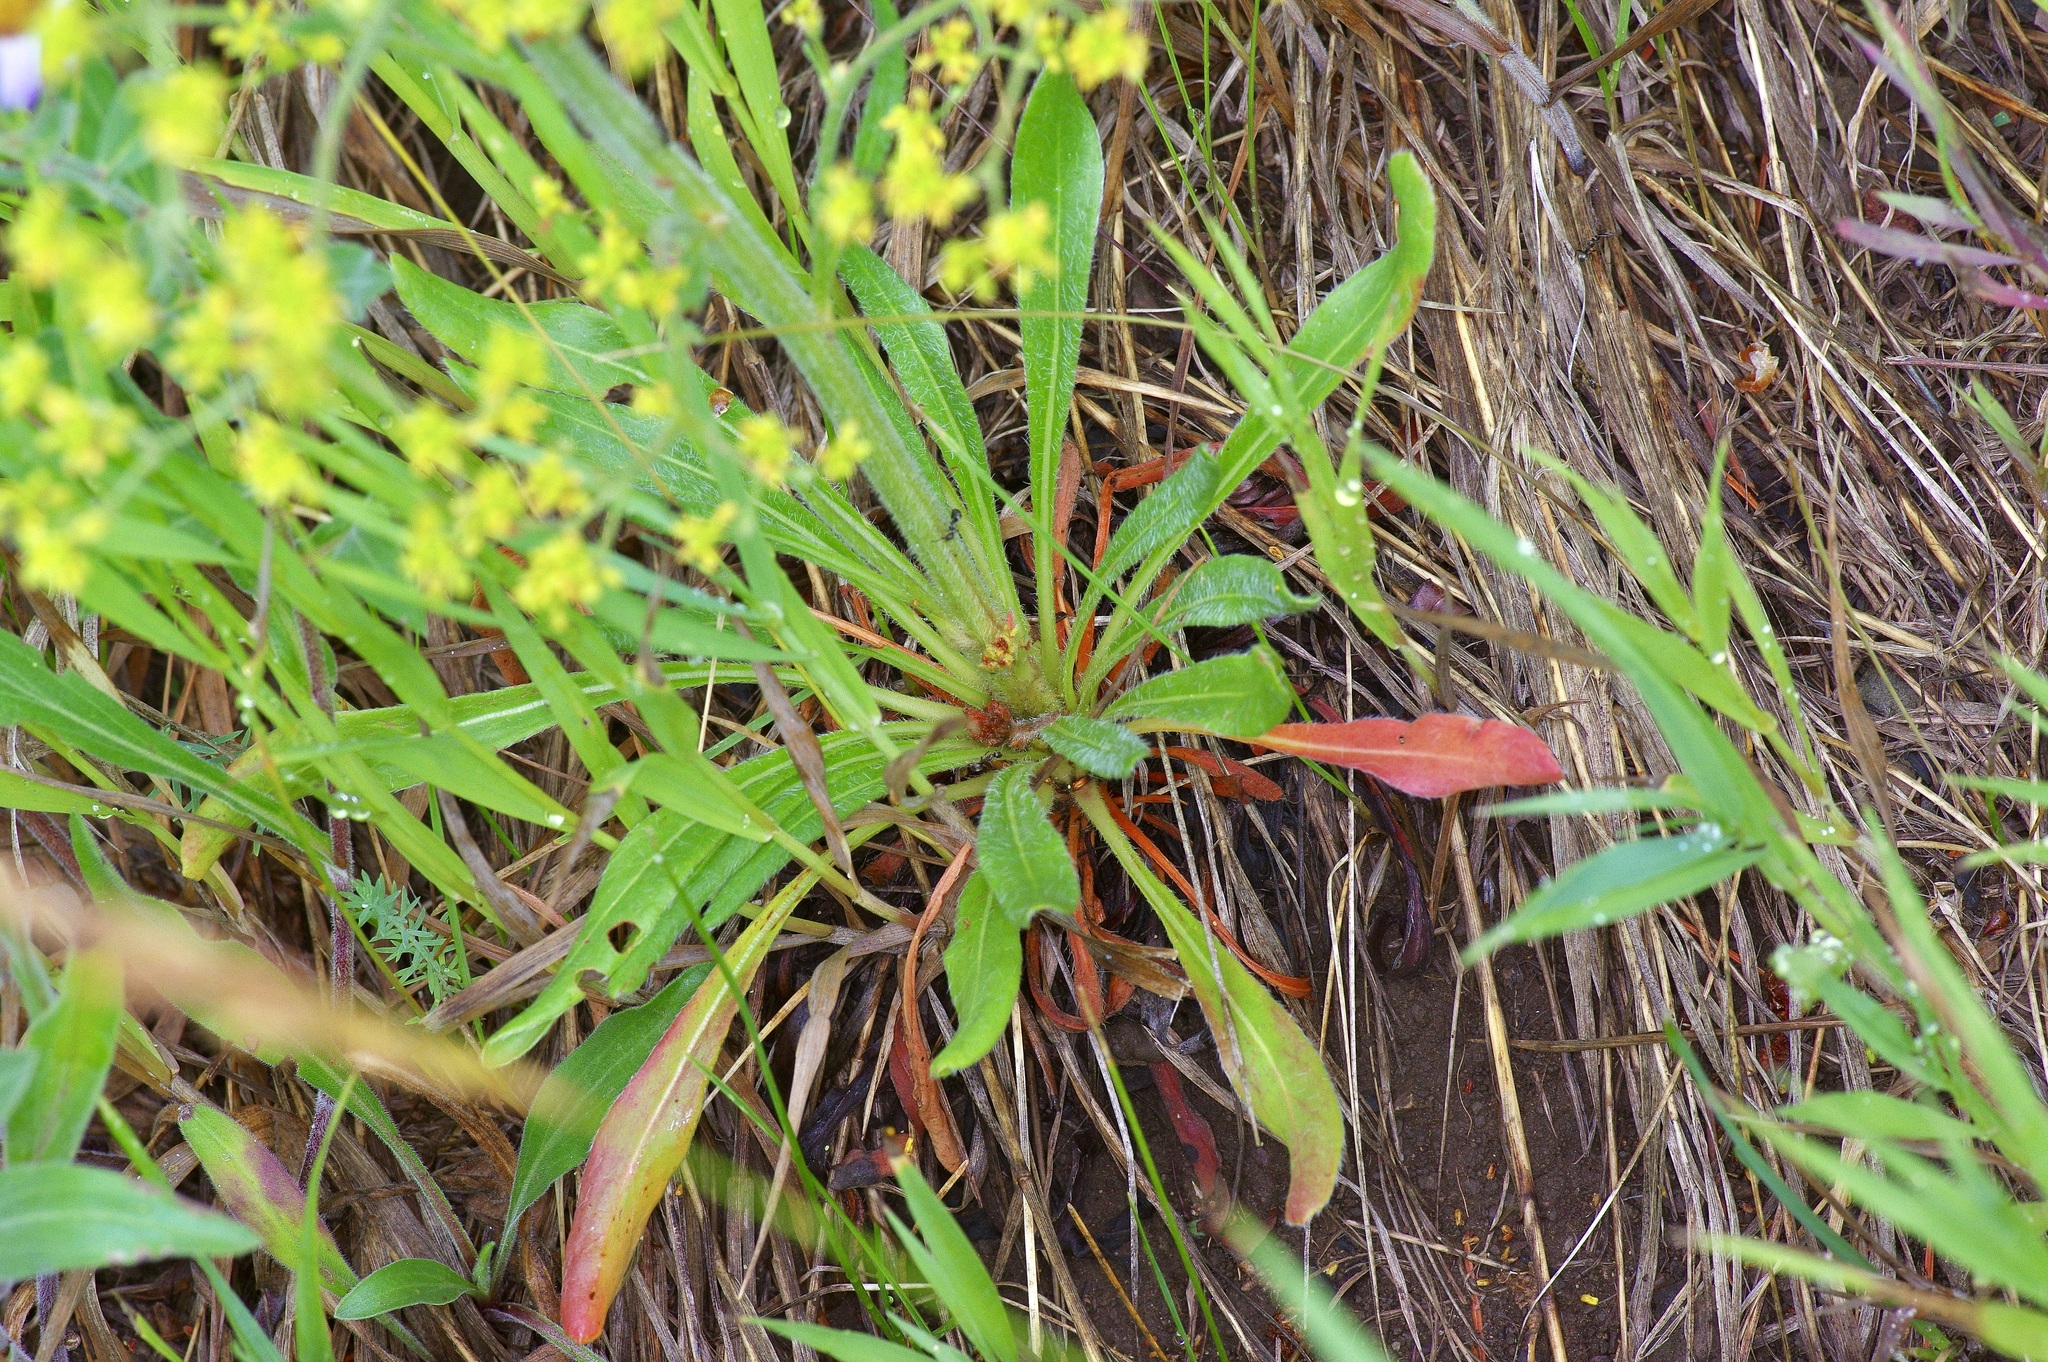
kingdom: Plantae
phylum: Tracheophyta
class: Magnoliopsida
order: Caryophyllales
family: Polygonaceae
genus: Eriogonum
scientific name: Eriogonum alatum
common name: Winged eriogonum
